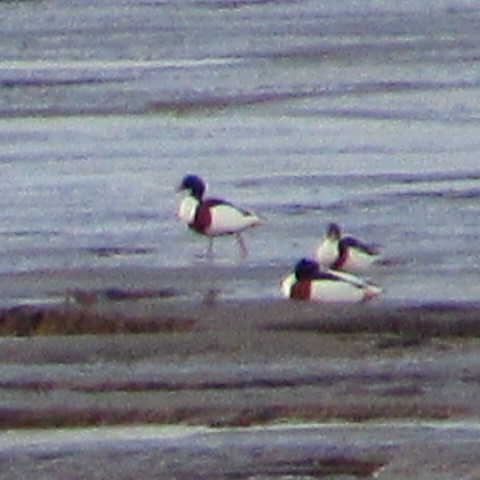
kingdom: Animalia
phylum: Chordata
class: Aves
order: Anseriformes
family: Anatidae
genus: Tadorna
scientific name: Tadorna tadorna
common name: Common shelduck
